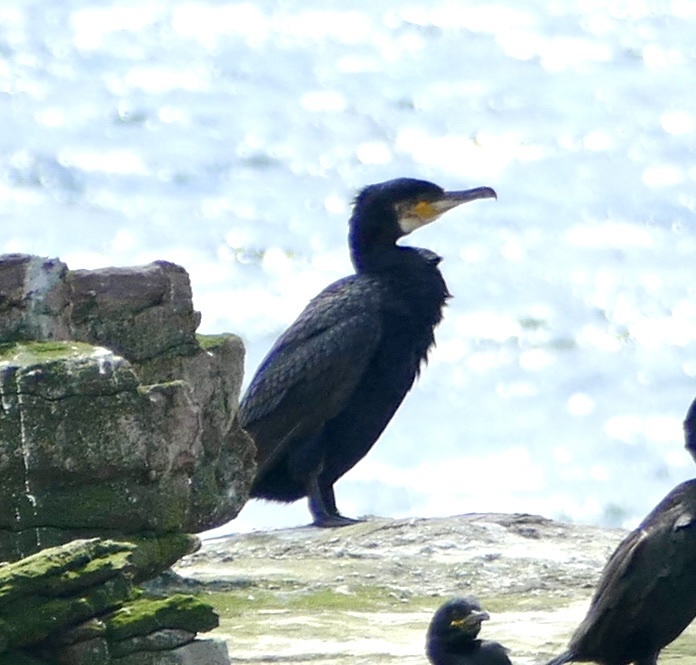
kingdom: Animalia
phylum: Chordata
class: Aves
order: Suliformes
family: Phalacrocoracidae
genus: Phalacrocorax
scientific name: Phalacrocorax carbo
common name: Great cormorant
